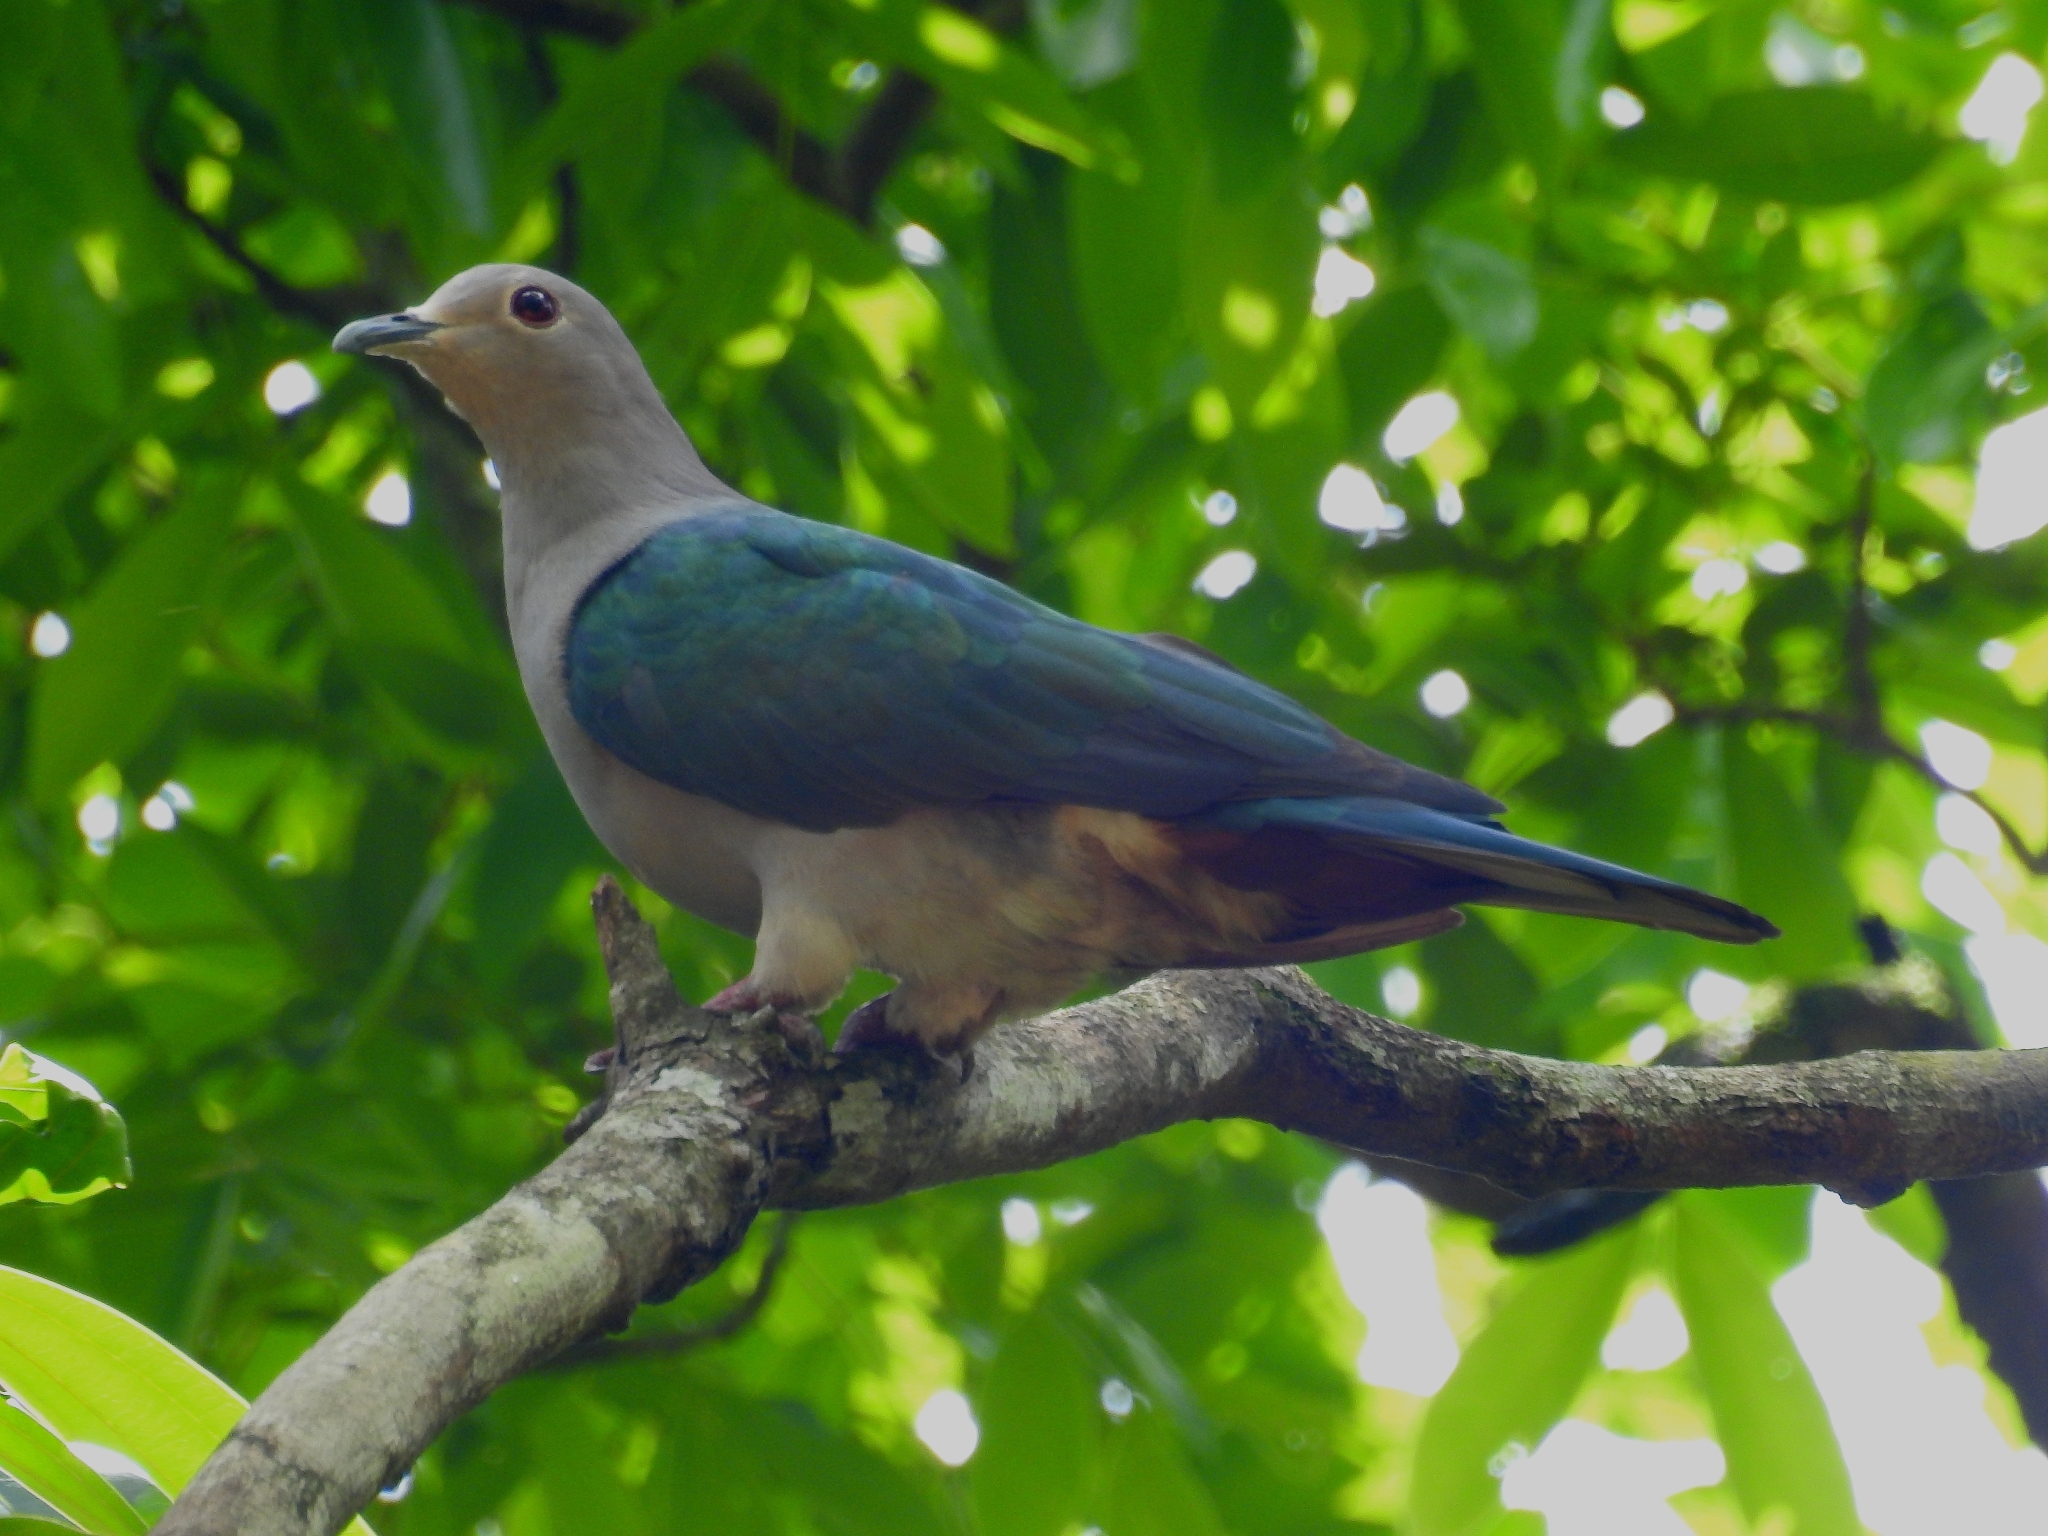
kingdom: Animalia
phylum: Chordata
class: Aves
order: Columbiformes
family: Columbidae
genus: Ducula
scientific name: Ducula aenea
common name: Green imperial pigeon
